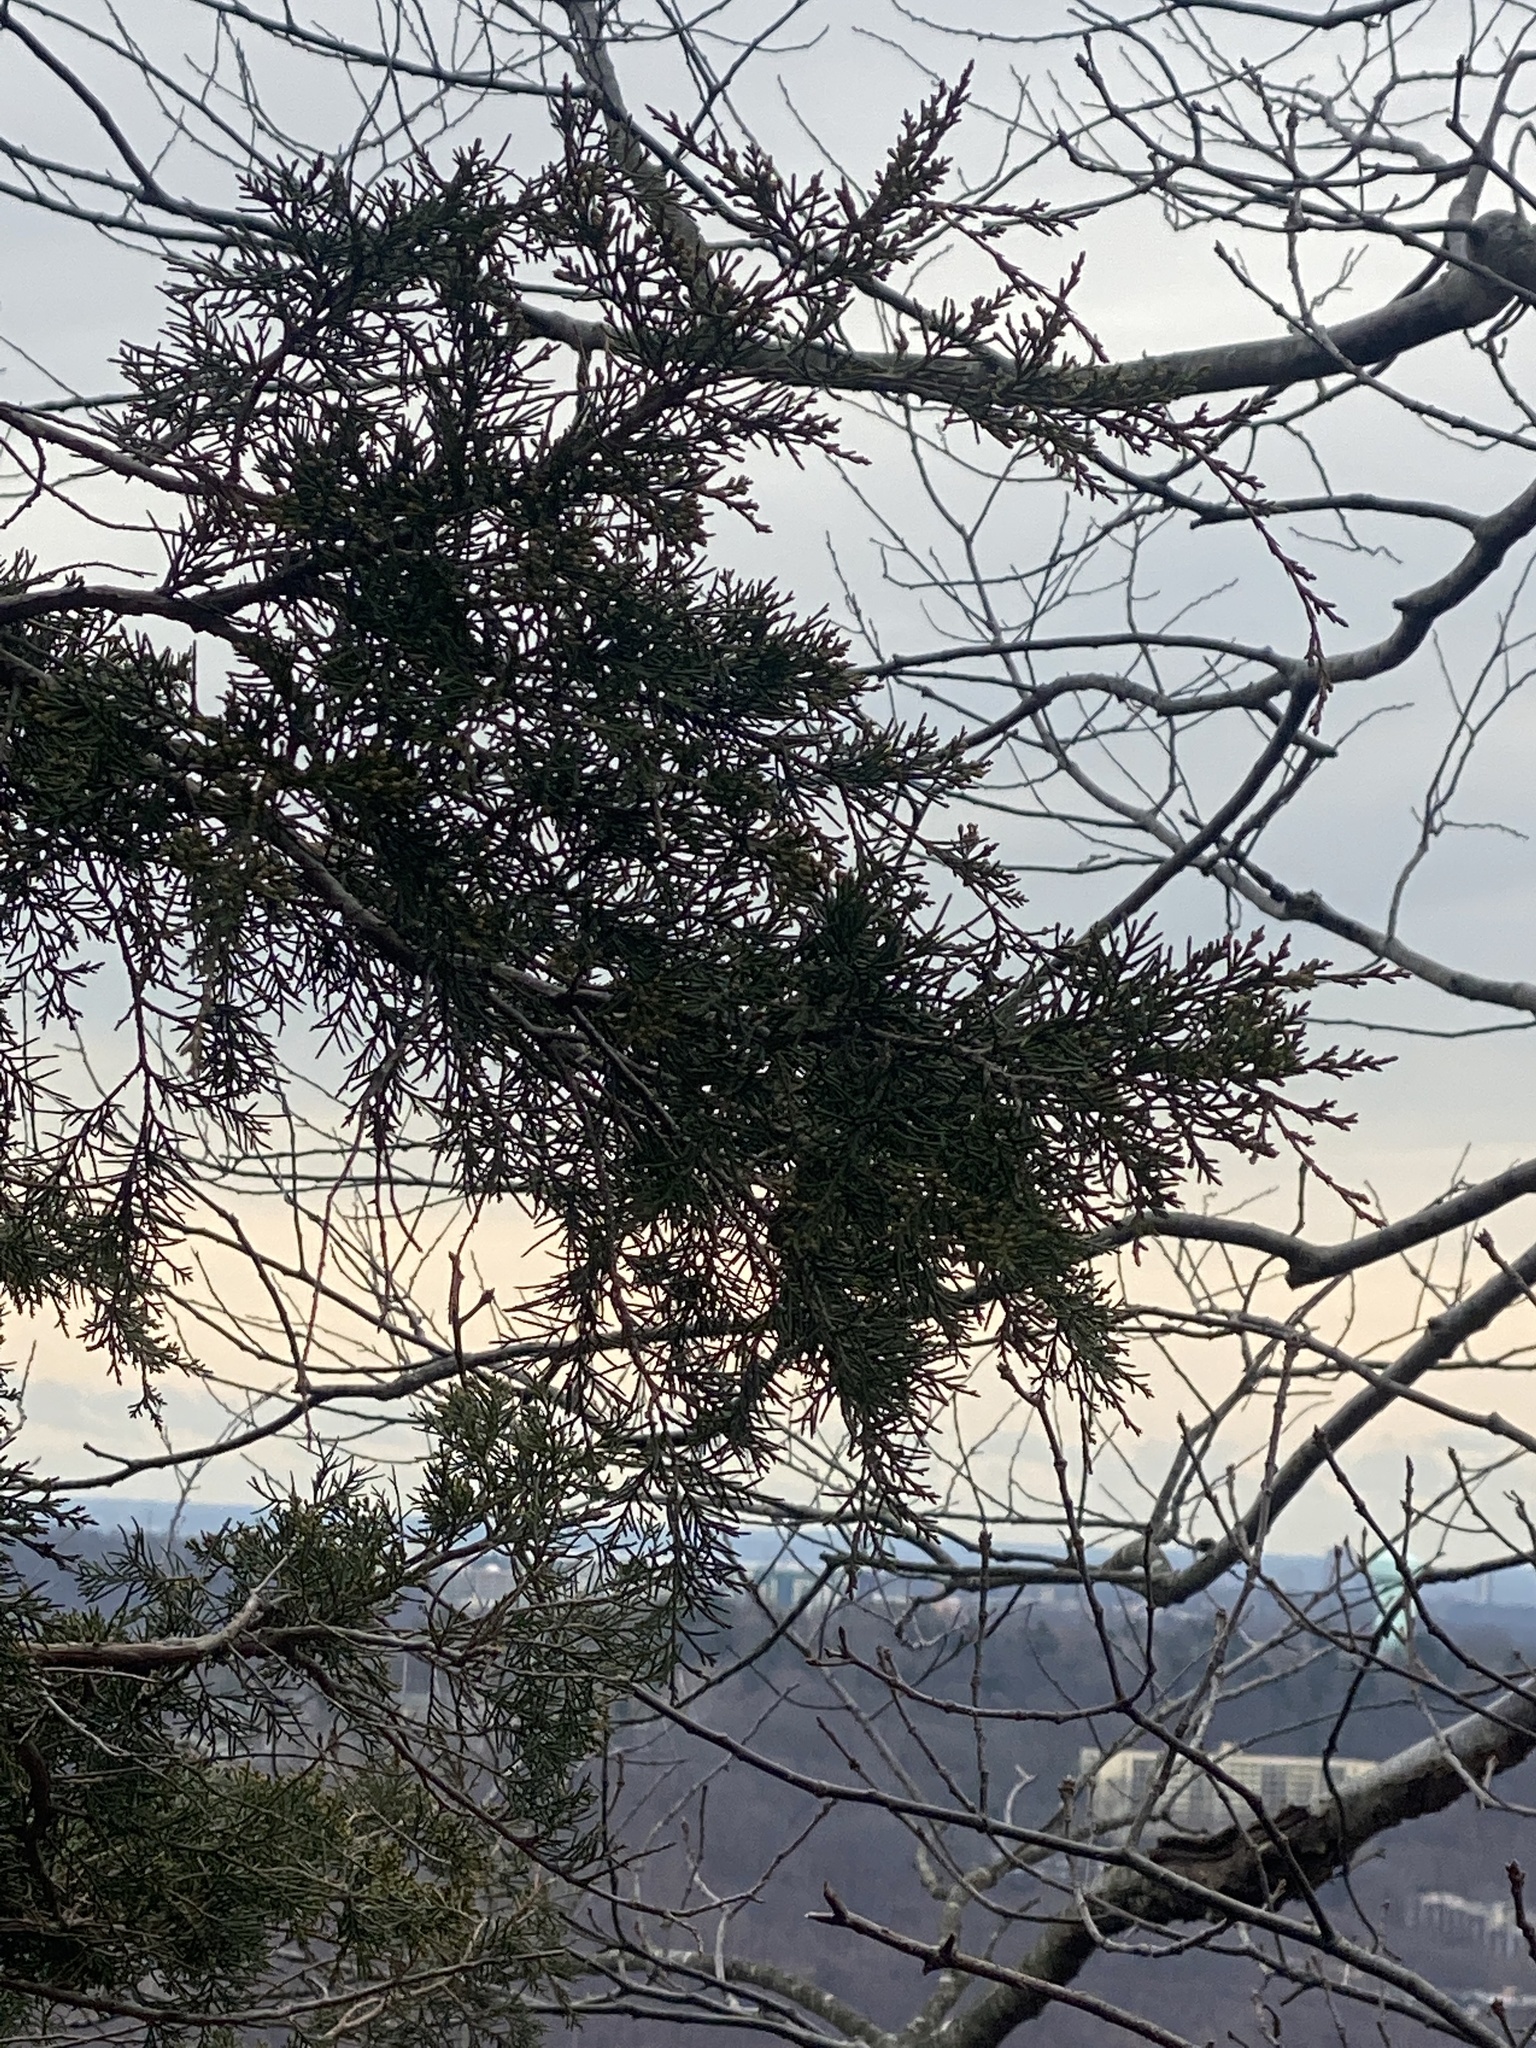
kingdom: Plantae
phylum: Tracheophyta
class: Pinopsida
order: Pinales
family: Cupressaceae
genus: Juniperus
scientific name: Juniperus virginiana
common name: Red juniper
